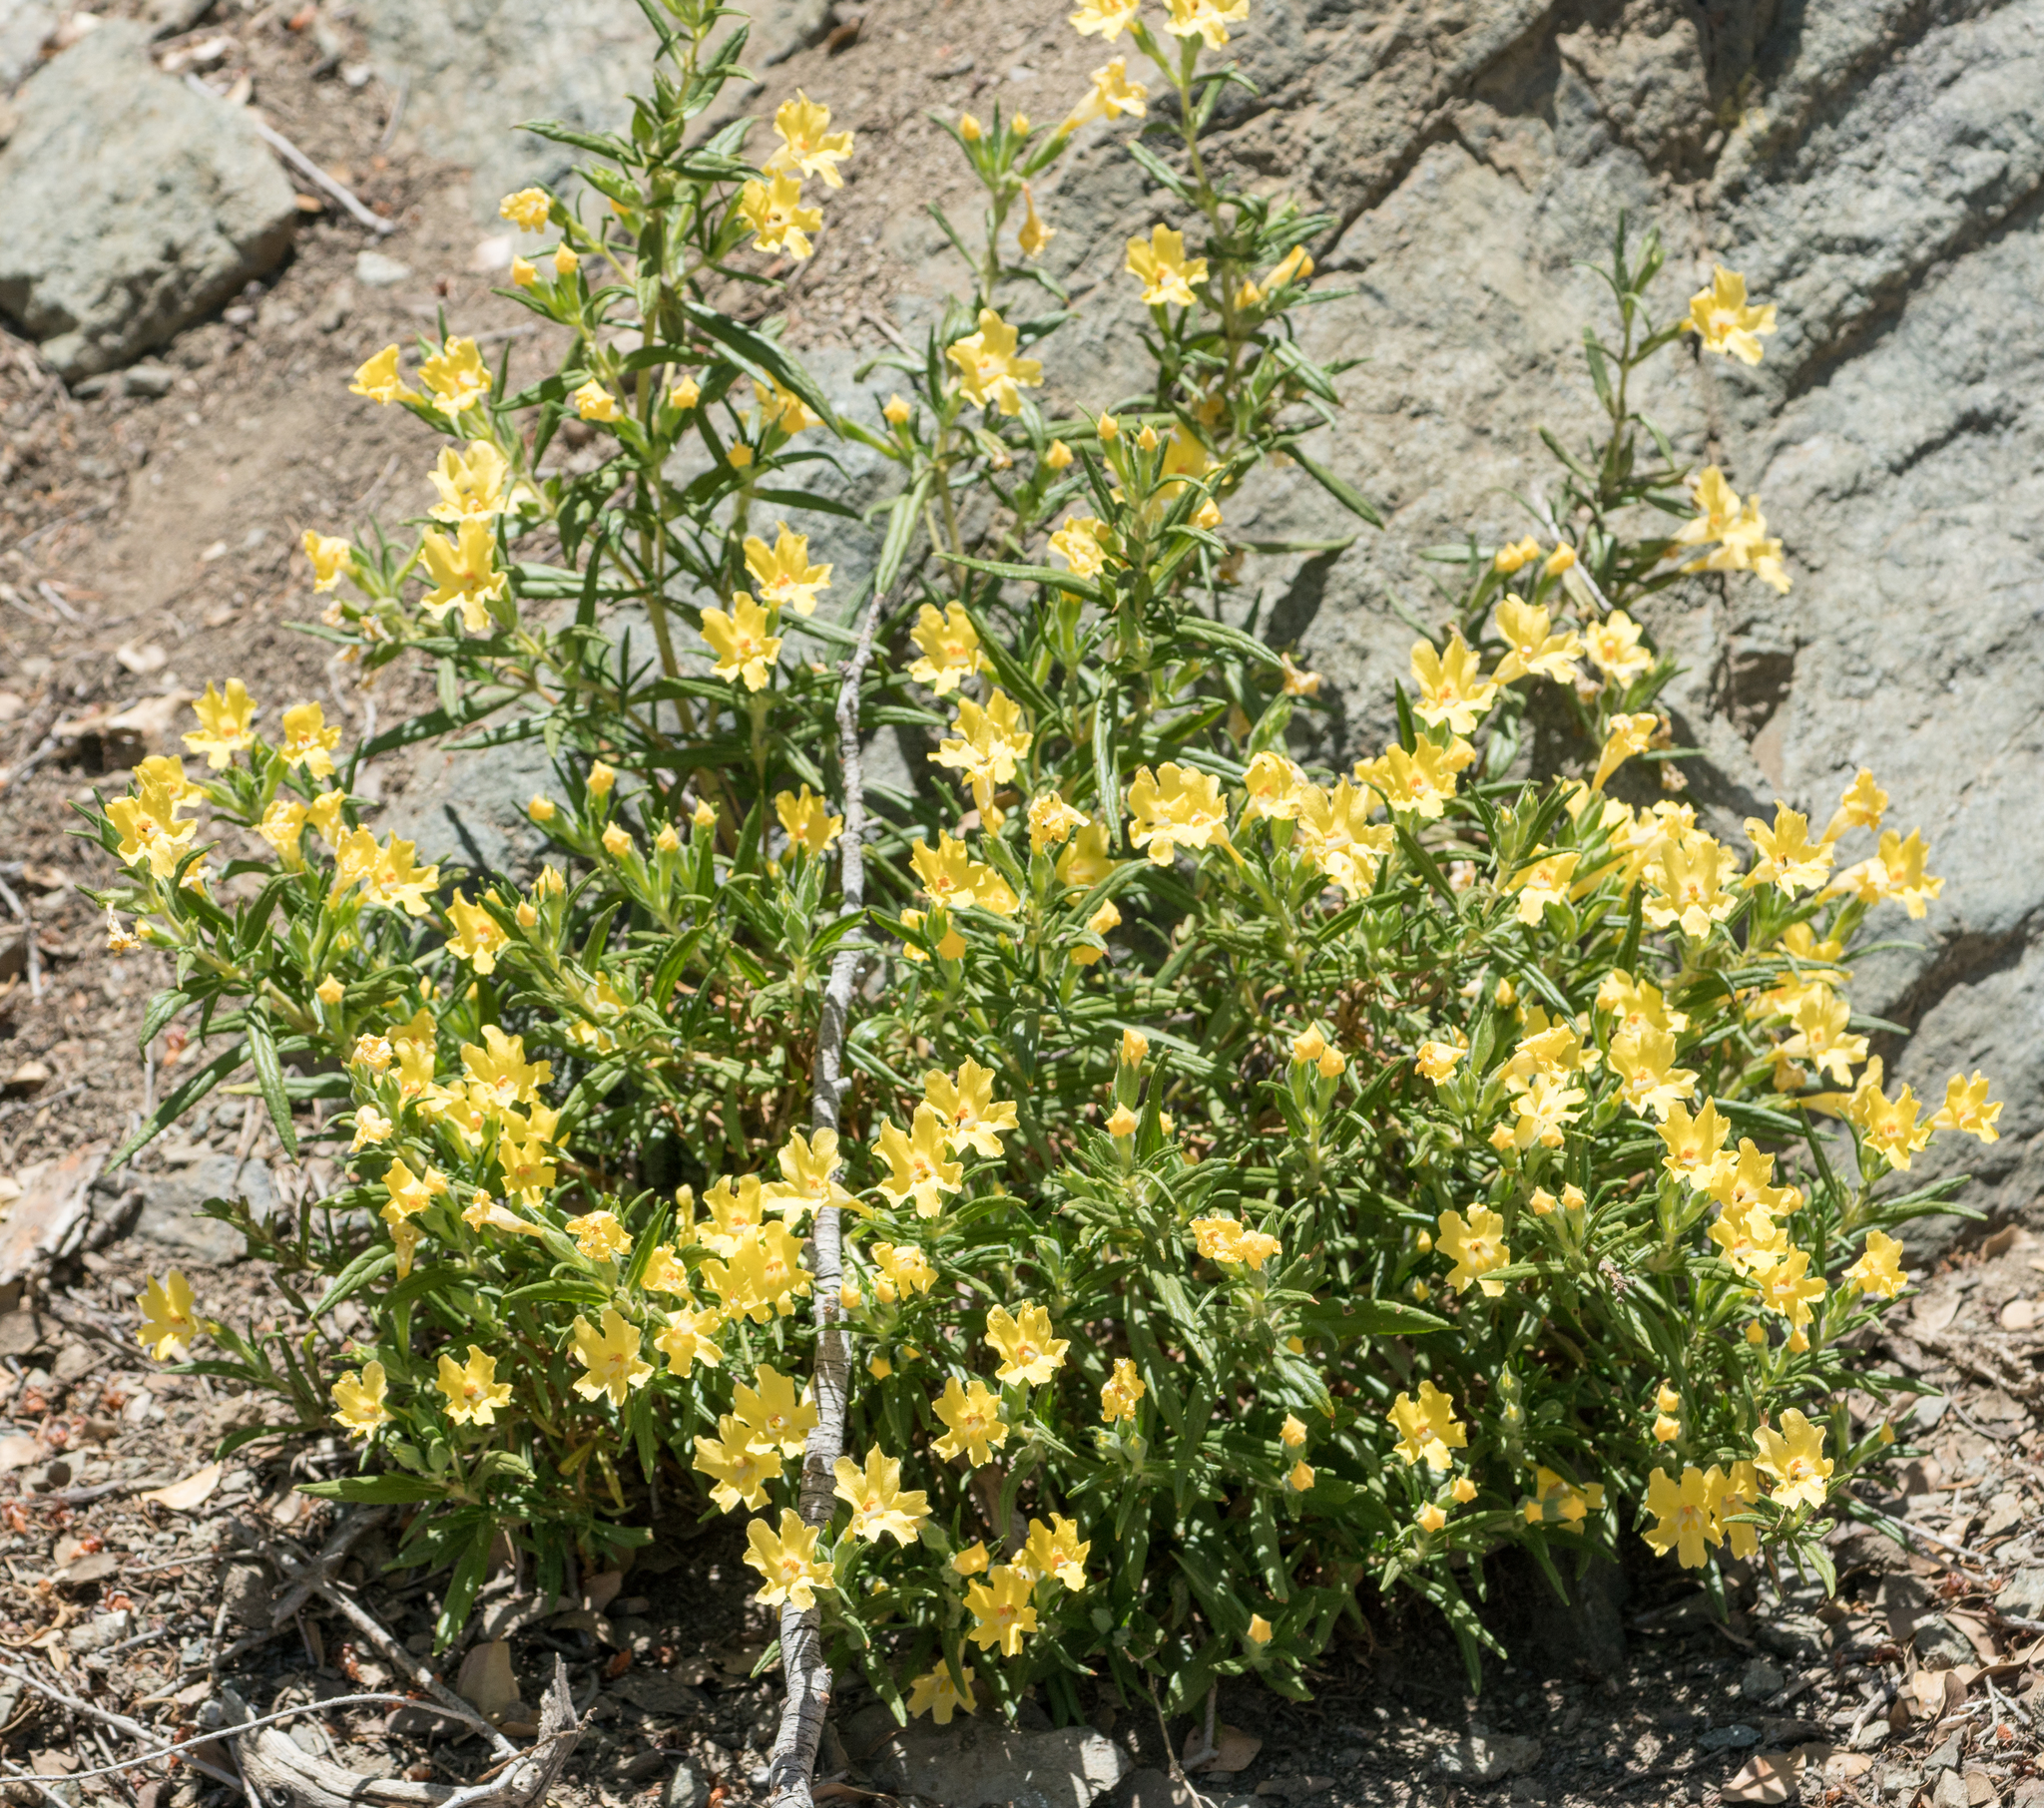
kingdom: Plantae
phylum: Tracheophyta
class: Magnoliopsida
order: Lamiales
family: Phrymaceae
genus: Diplacus
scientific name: Diplacus calycinus
